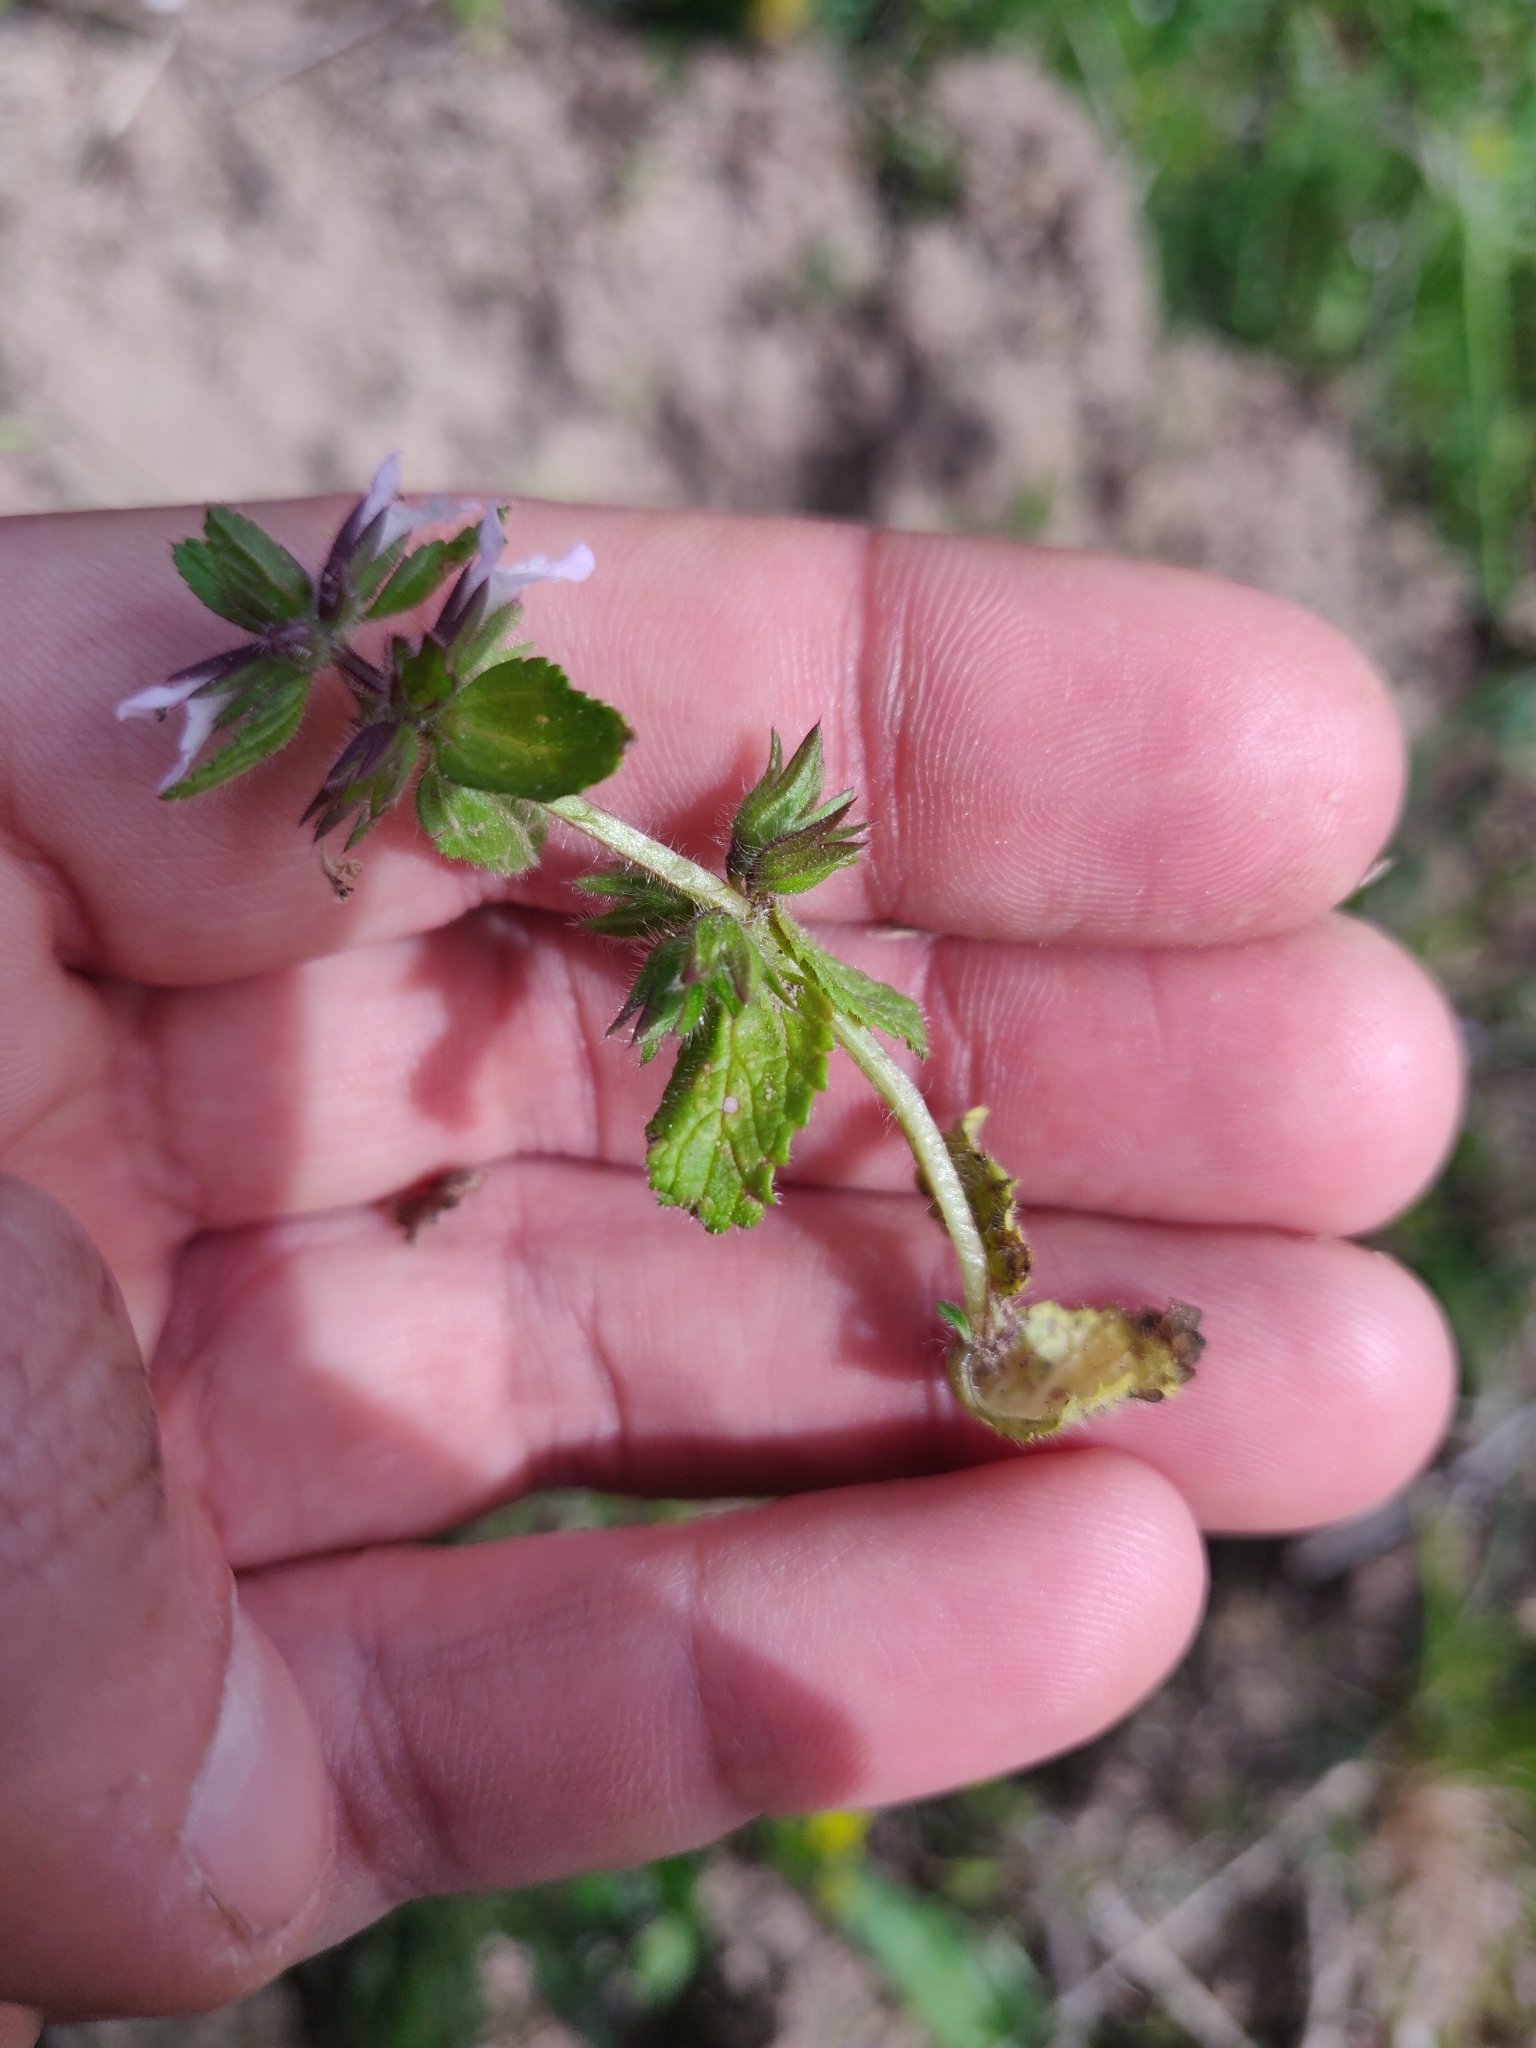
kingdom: Plantae
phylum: Tracheophyta
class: Magnoliopsida
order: Lamiales
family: Lamiaceae
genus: Stachys
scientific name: Stachys arvensis
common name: Field woundwort
